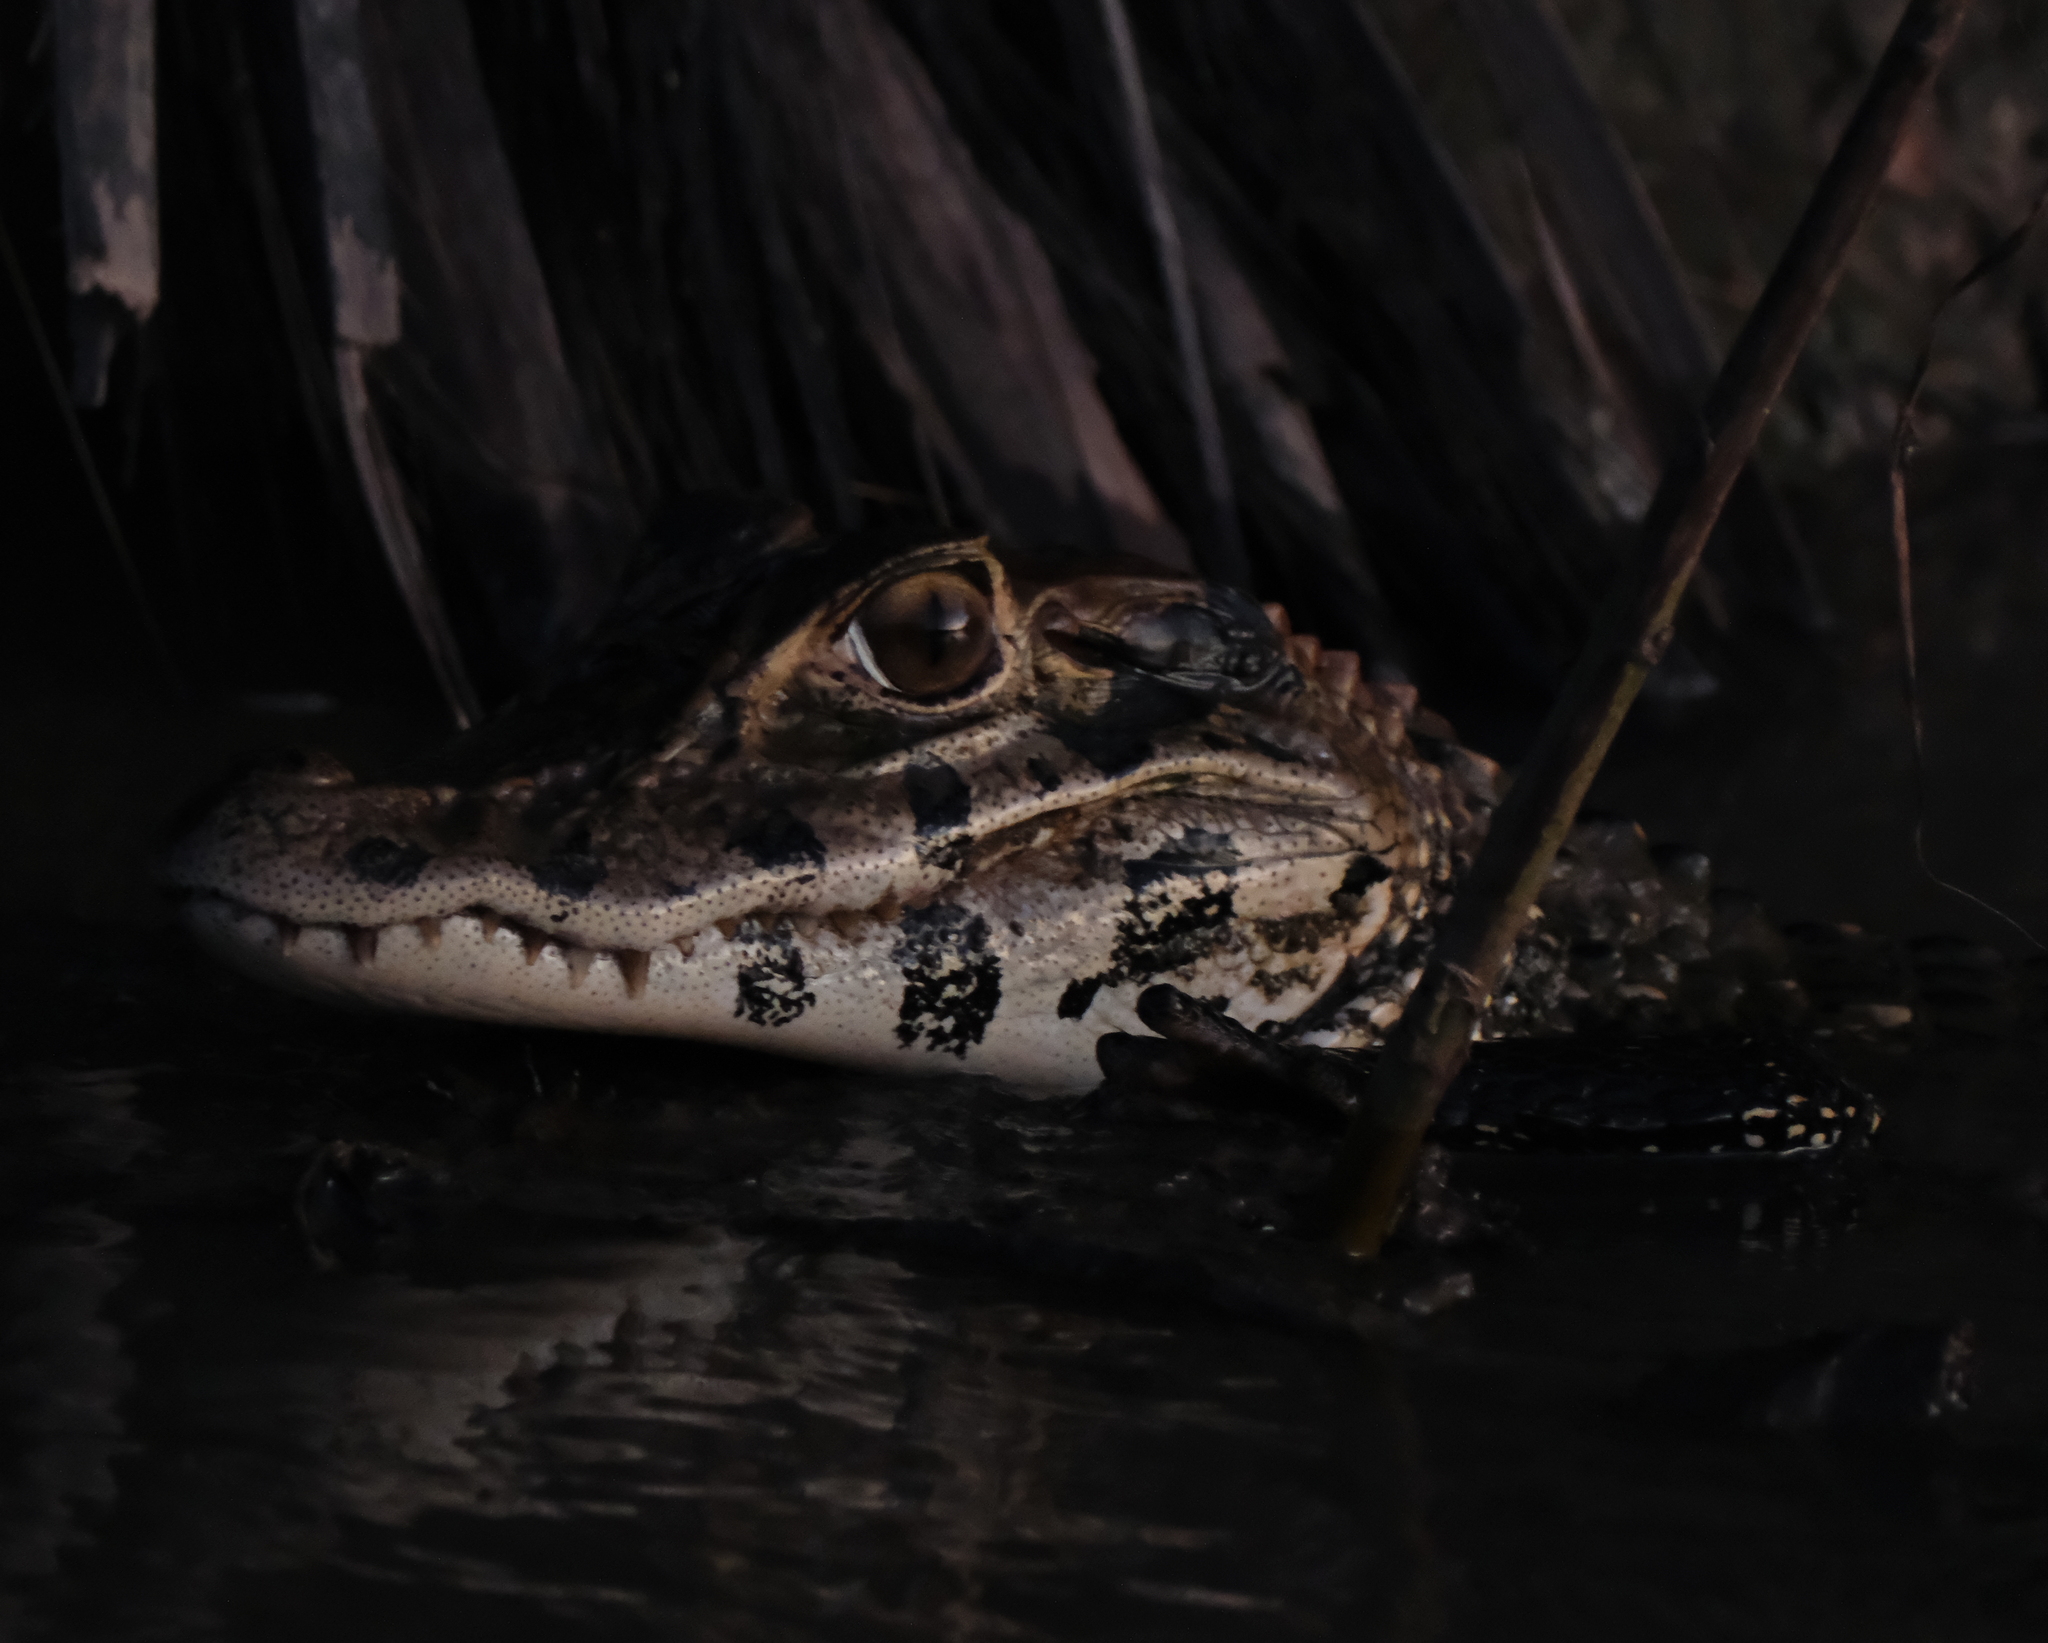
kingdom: Animalia
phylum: Chordata
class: Crocodylia
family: Alligatoridae
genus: Melanosuchus
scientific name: Melanosuchus niger
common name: Black caiman
